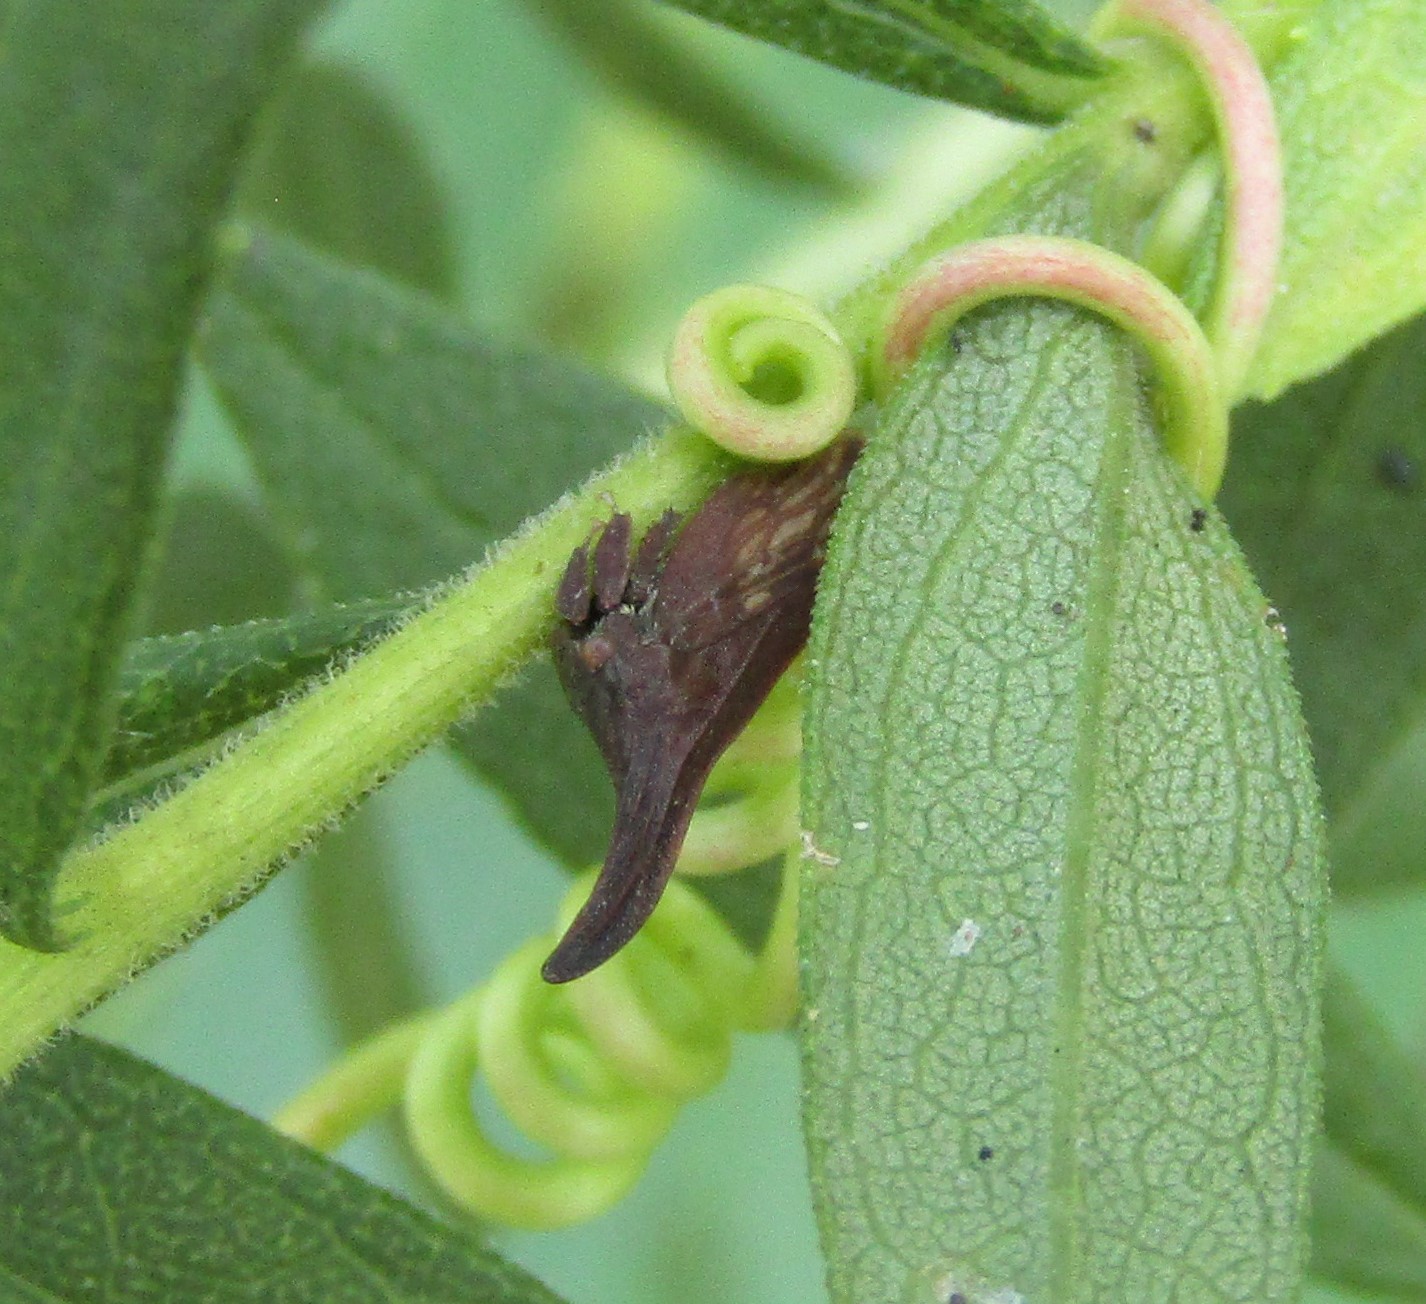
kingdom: Animalia
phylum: Arthropoda
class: Insecta
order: Hemiptera
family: Membracidae
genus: Enchenopa
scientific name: Enchenopa latipes
